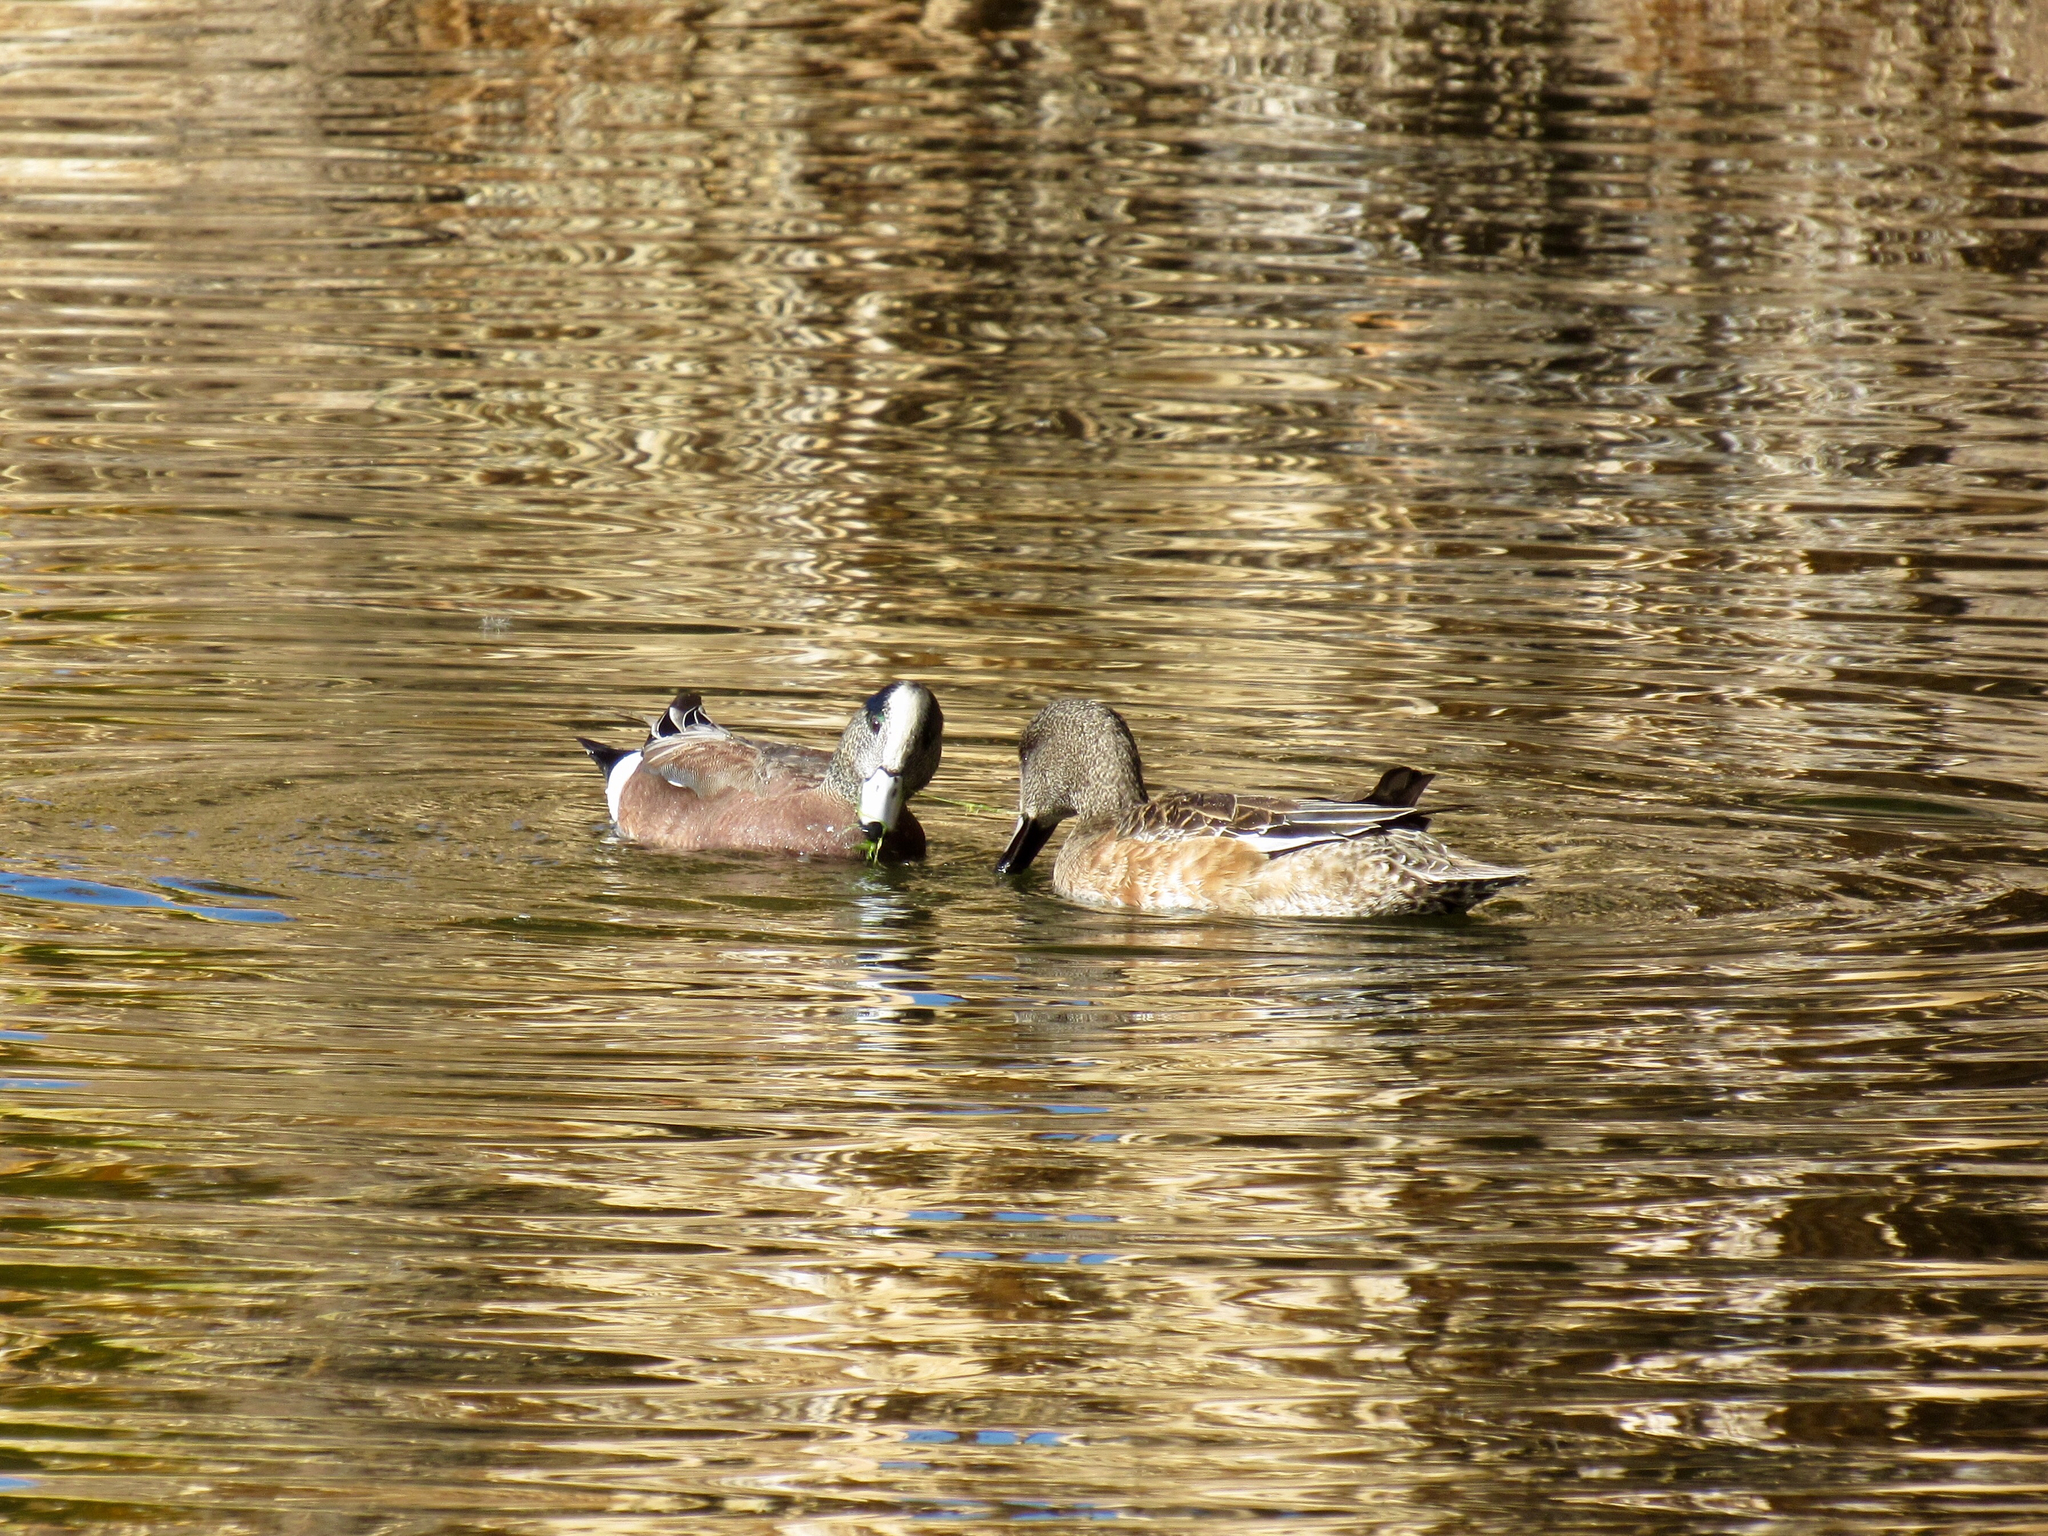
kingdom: Animalia
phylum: Chordata
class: Aves
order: Anseriformes
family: Anatidae
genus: Mareca
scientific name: Mareca americana
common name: American wigeon
